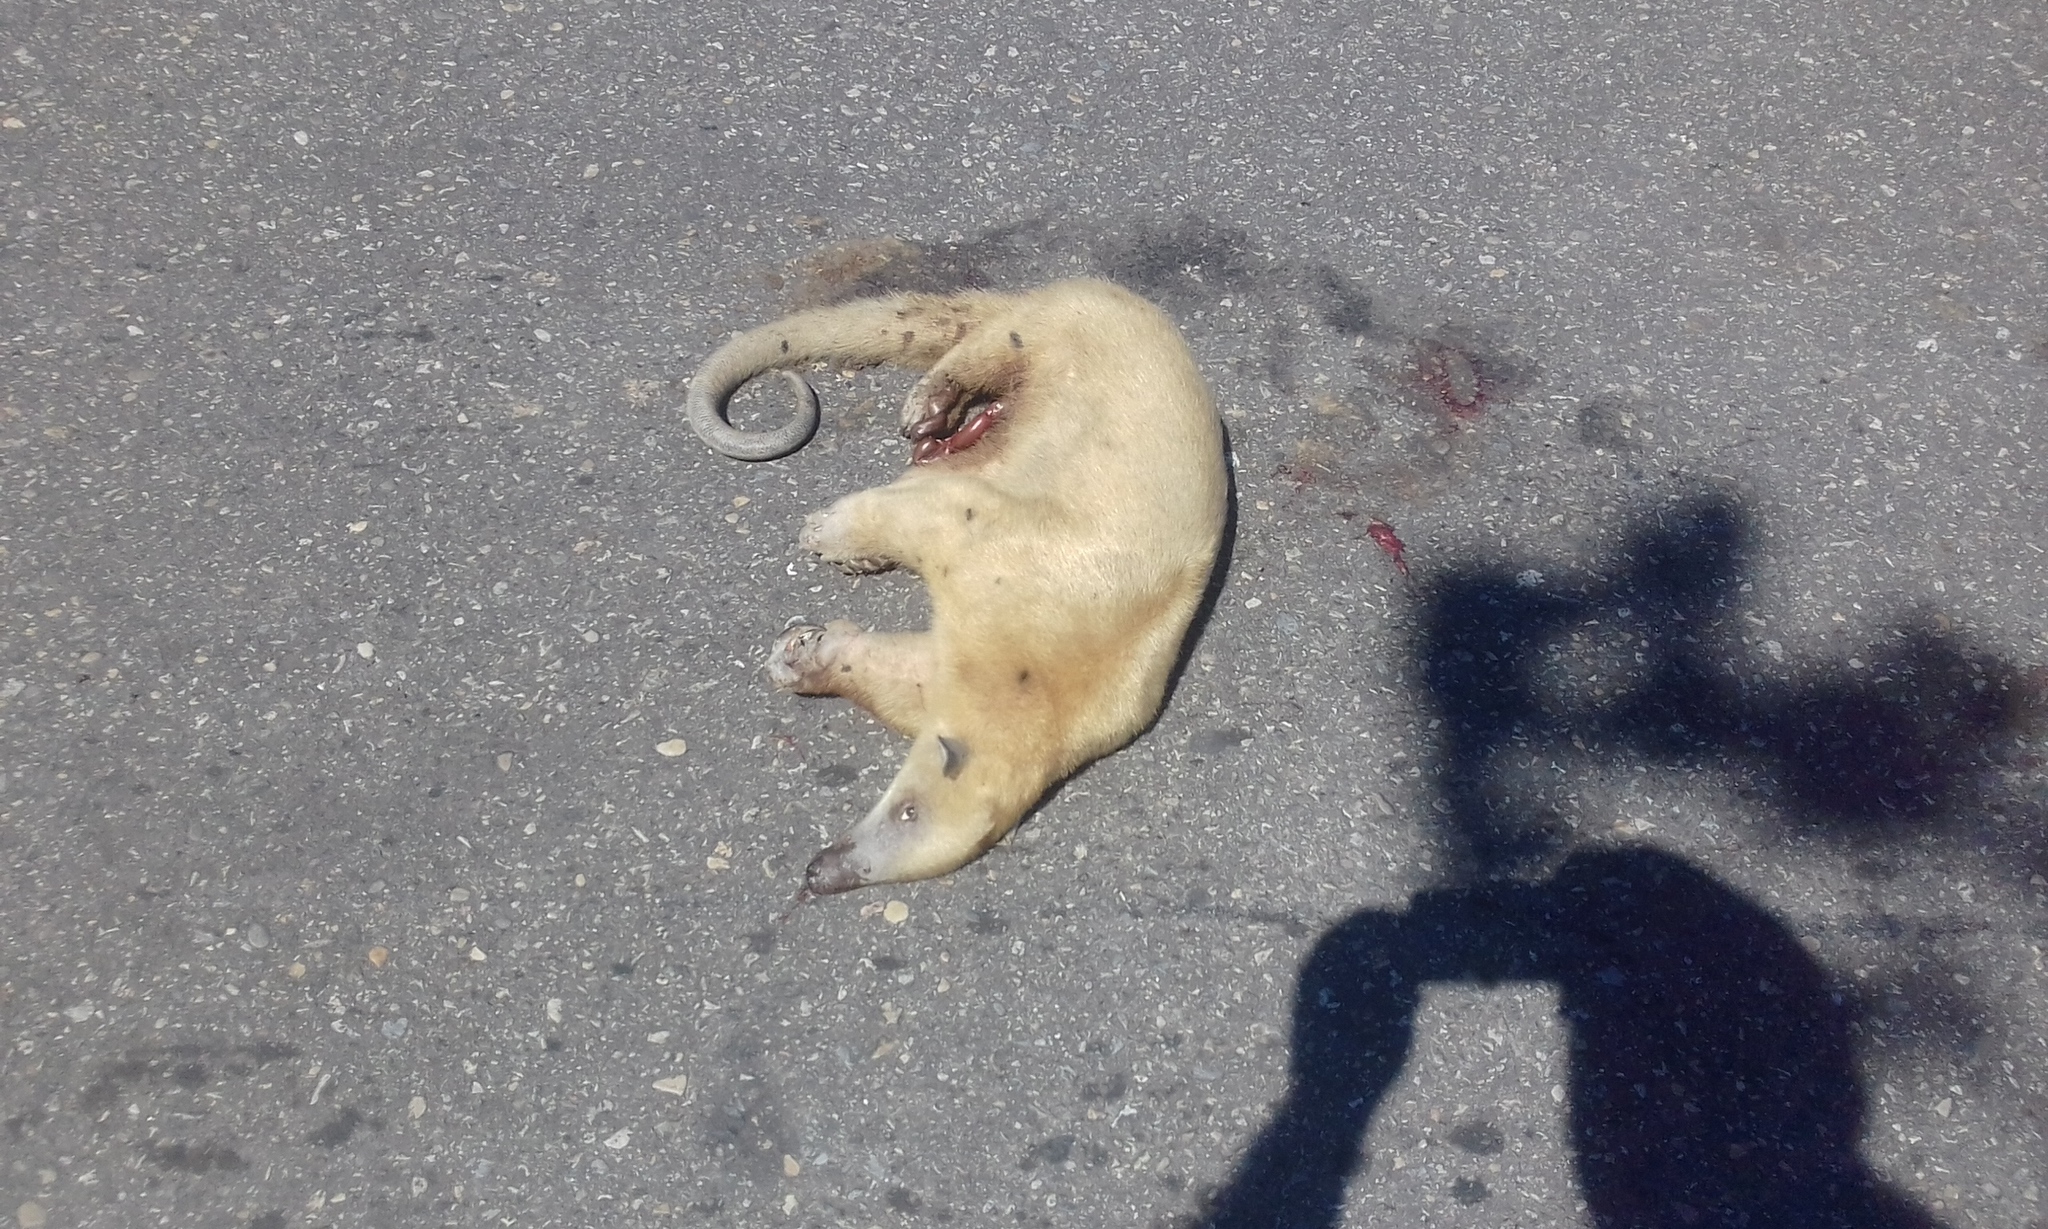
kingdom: Animalia
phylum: Chordata
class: Mammalia
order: Pilosa
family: Myrmecophagidae
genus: Tamandua
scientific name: Tamandua tetradactyla
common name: Southern tamandua
